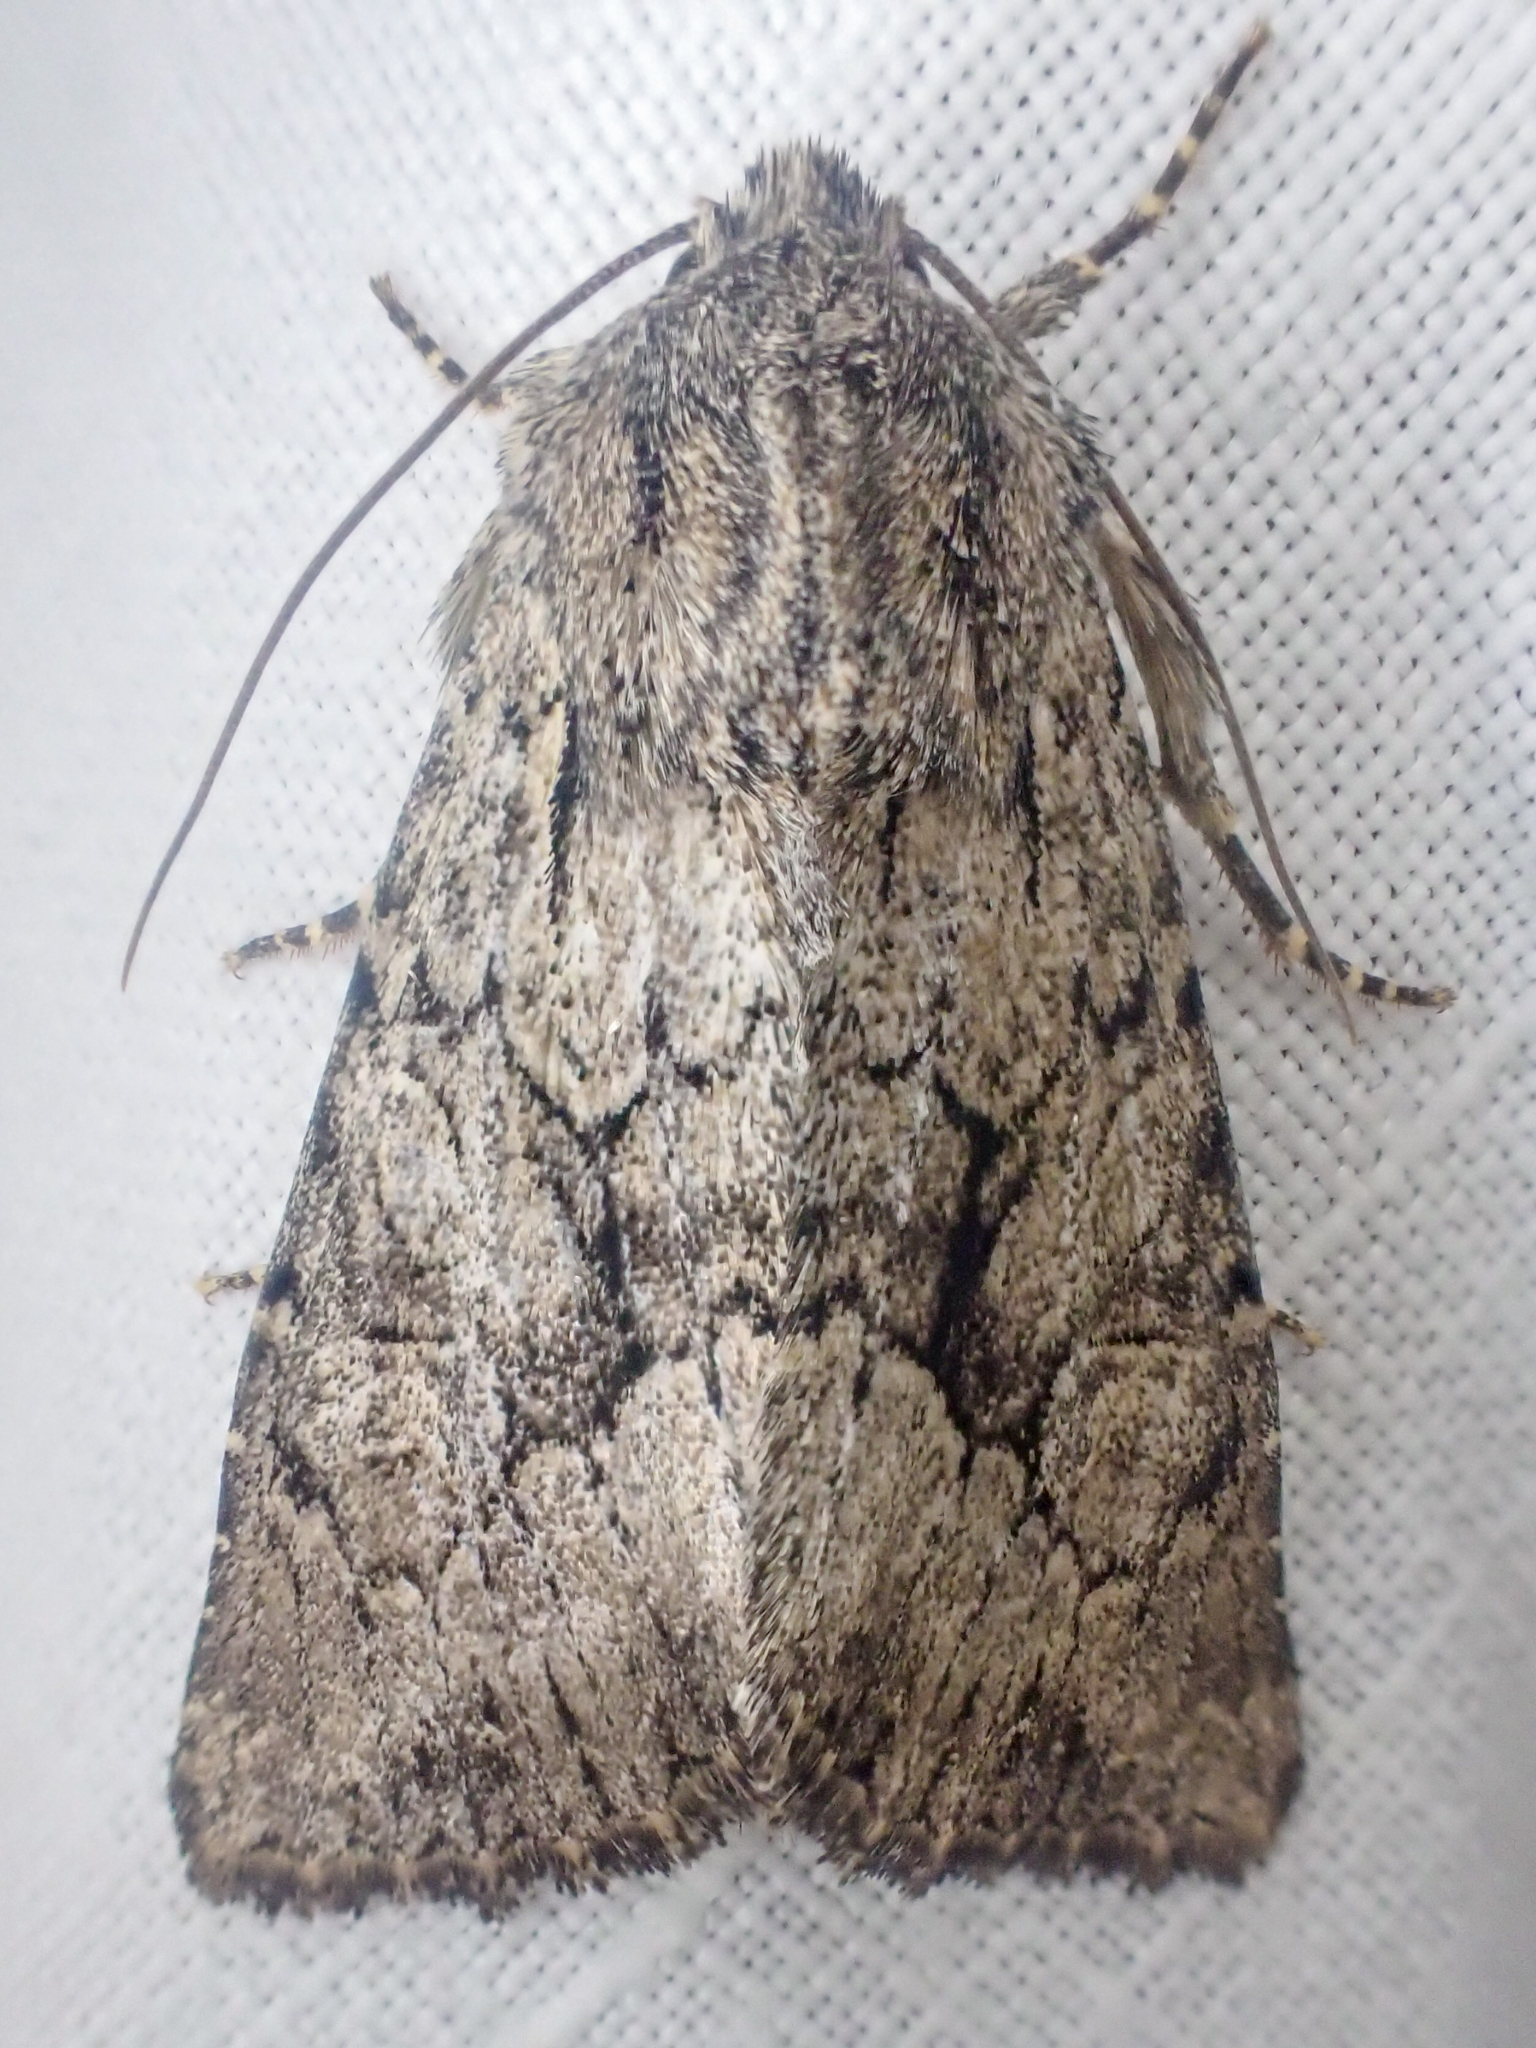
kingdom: Animalia
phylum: Arthropoda
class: Insecta
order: Lepidoptera
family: Noctuidae
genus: Apamea
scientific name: Apamea longula
